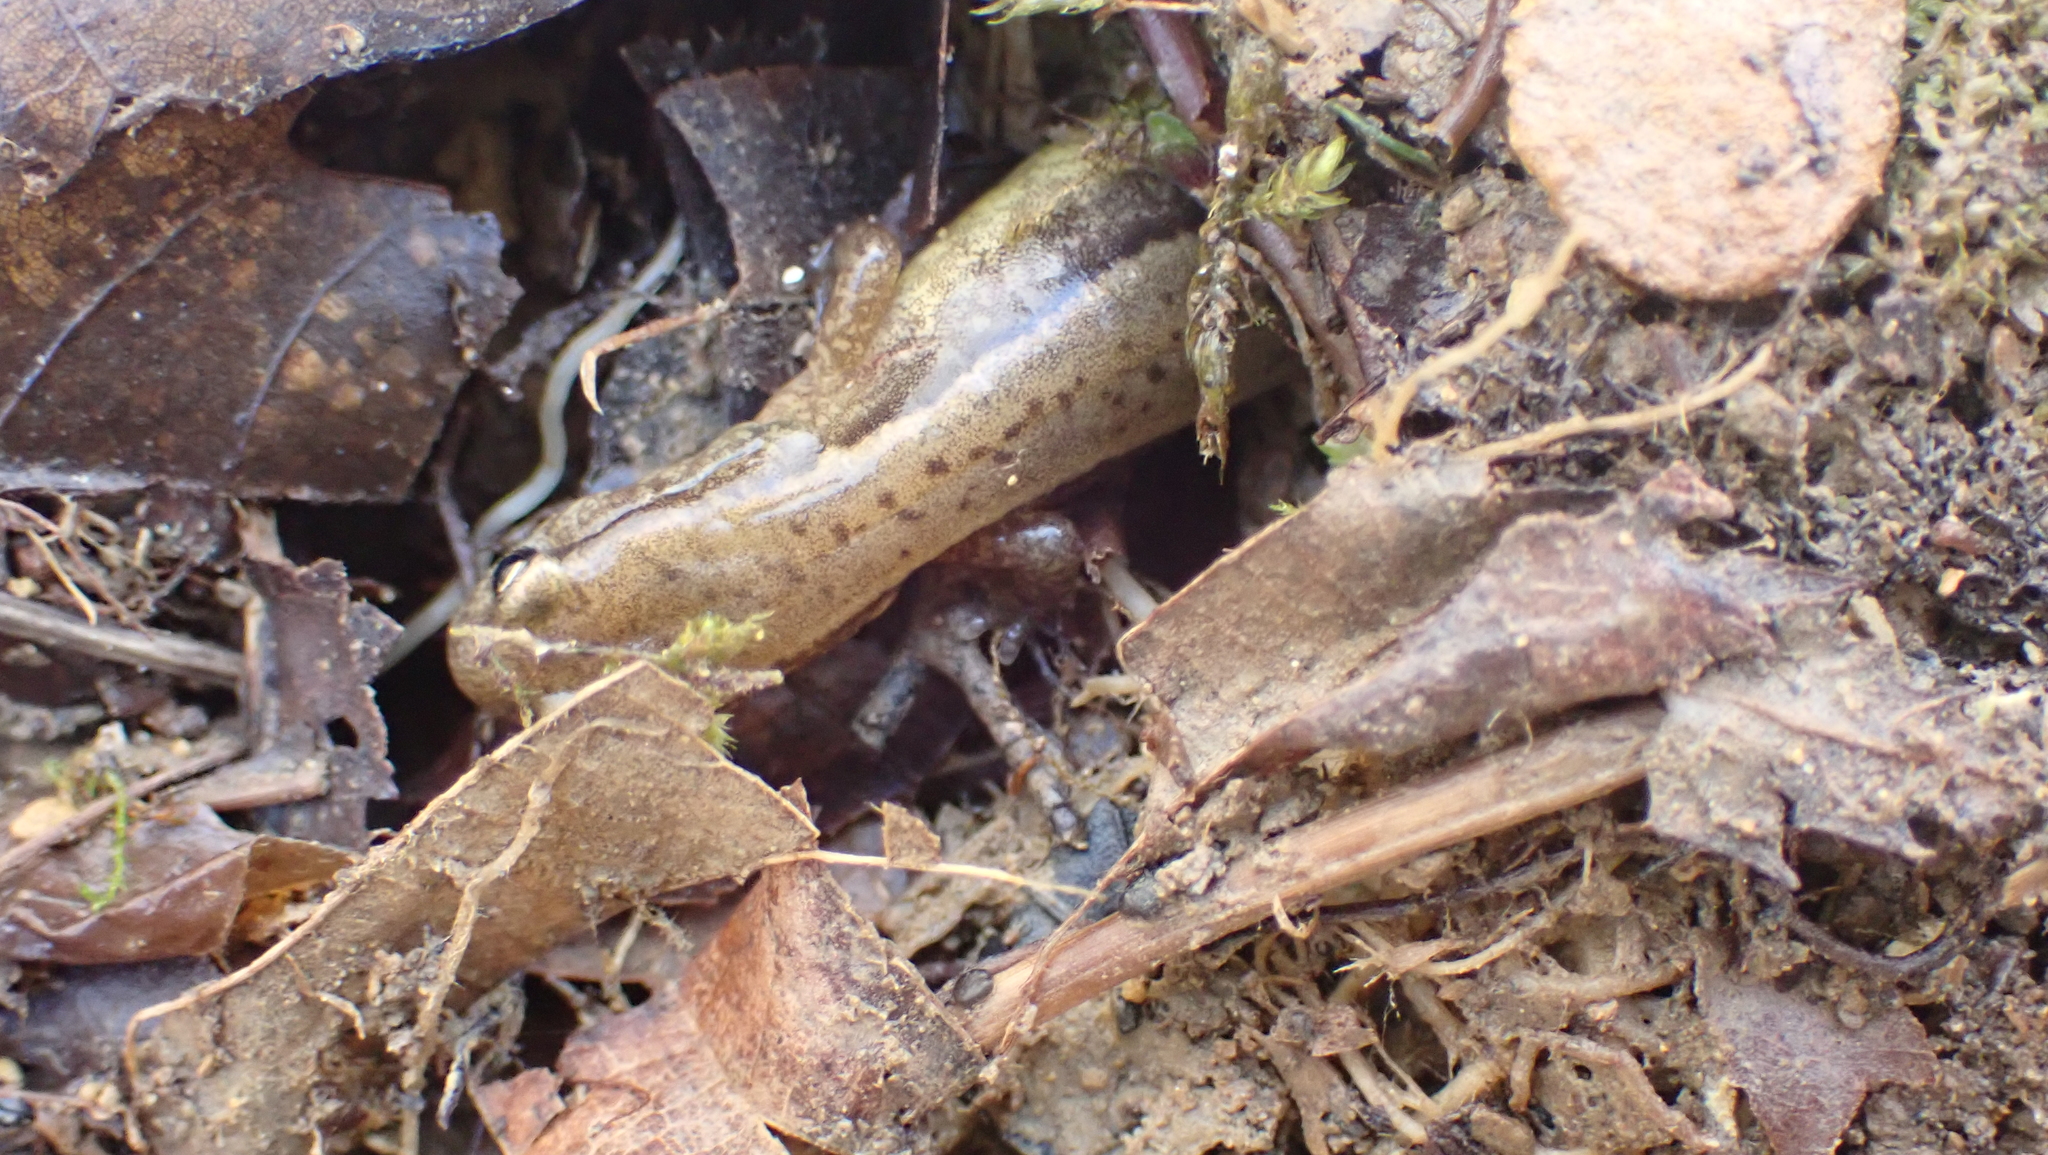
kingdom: Animalia
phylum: Chordata
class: Amphibia
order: Caudata
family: Plethodontidae
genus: Eurycea
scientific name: Eurycea cirrigera
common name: Southern two-lined salamander
